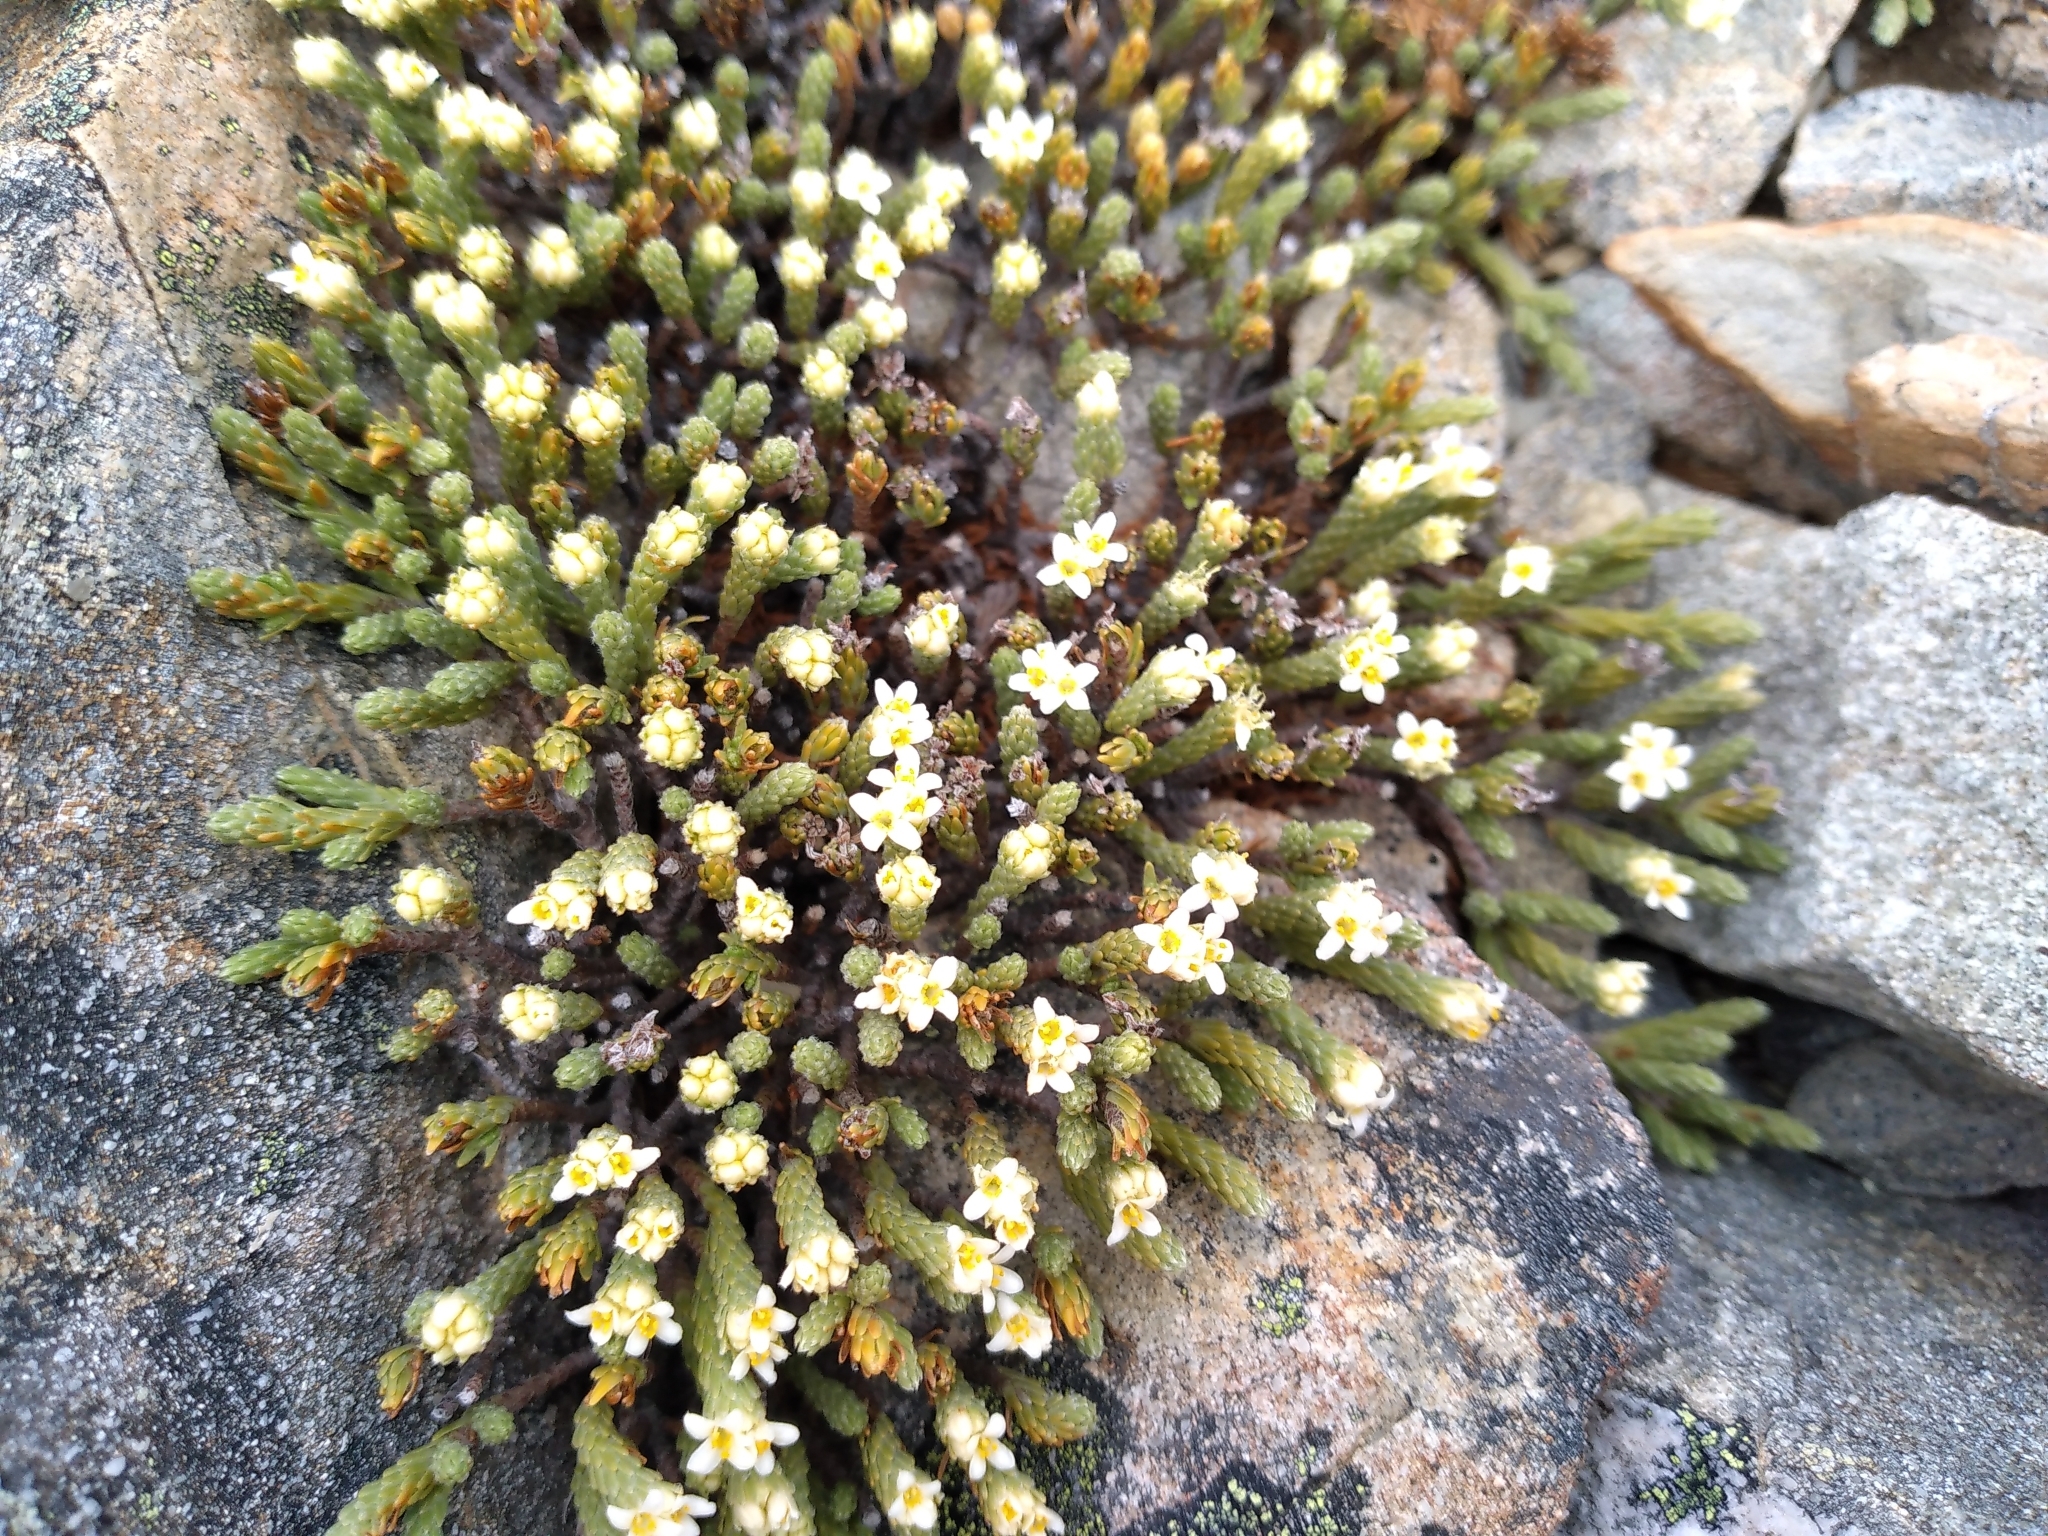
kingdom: Plantae
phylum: Tracheophyta
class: Magnoliopsida
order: Malvales
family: Thymelaeaceae
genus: Kelleria
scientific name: Kelleria villosa
